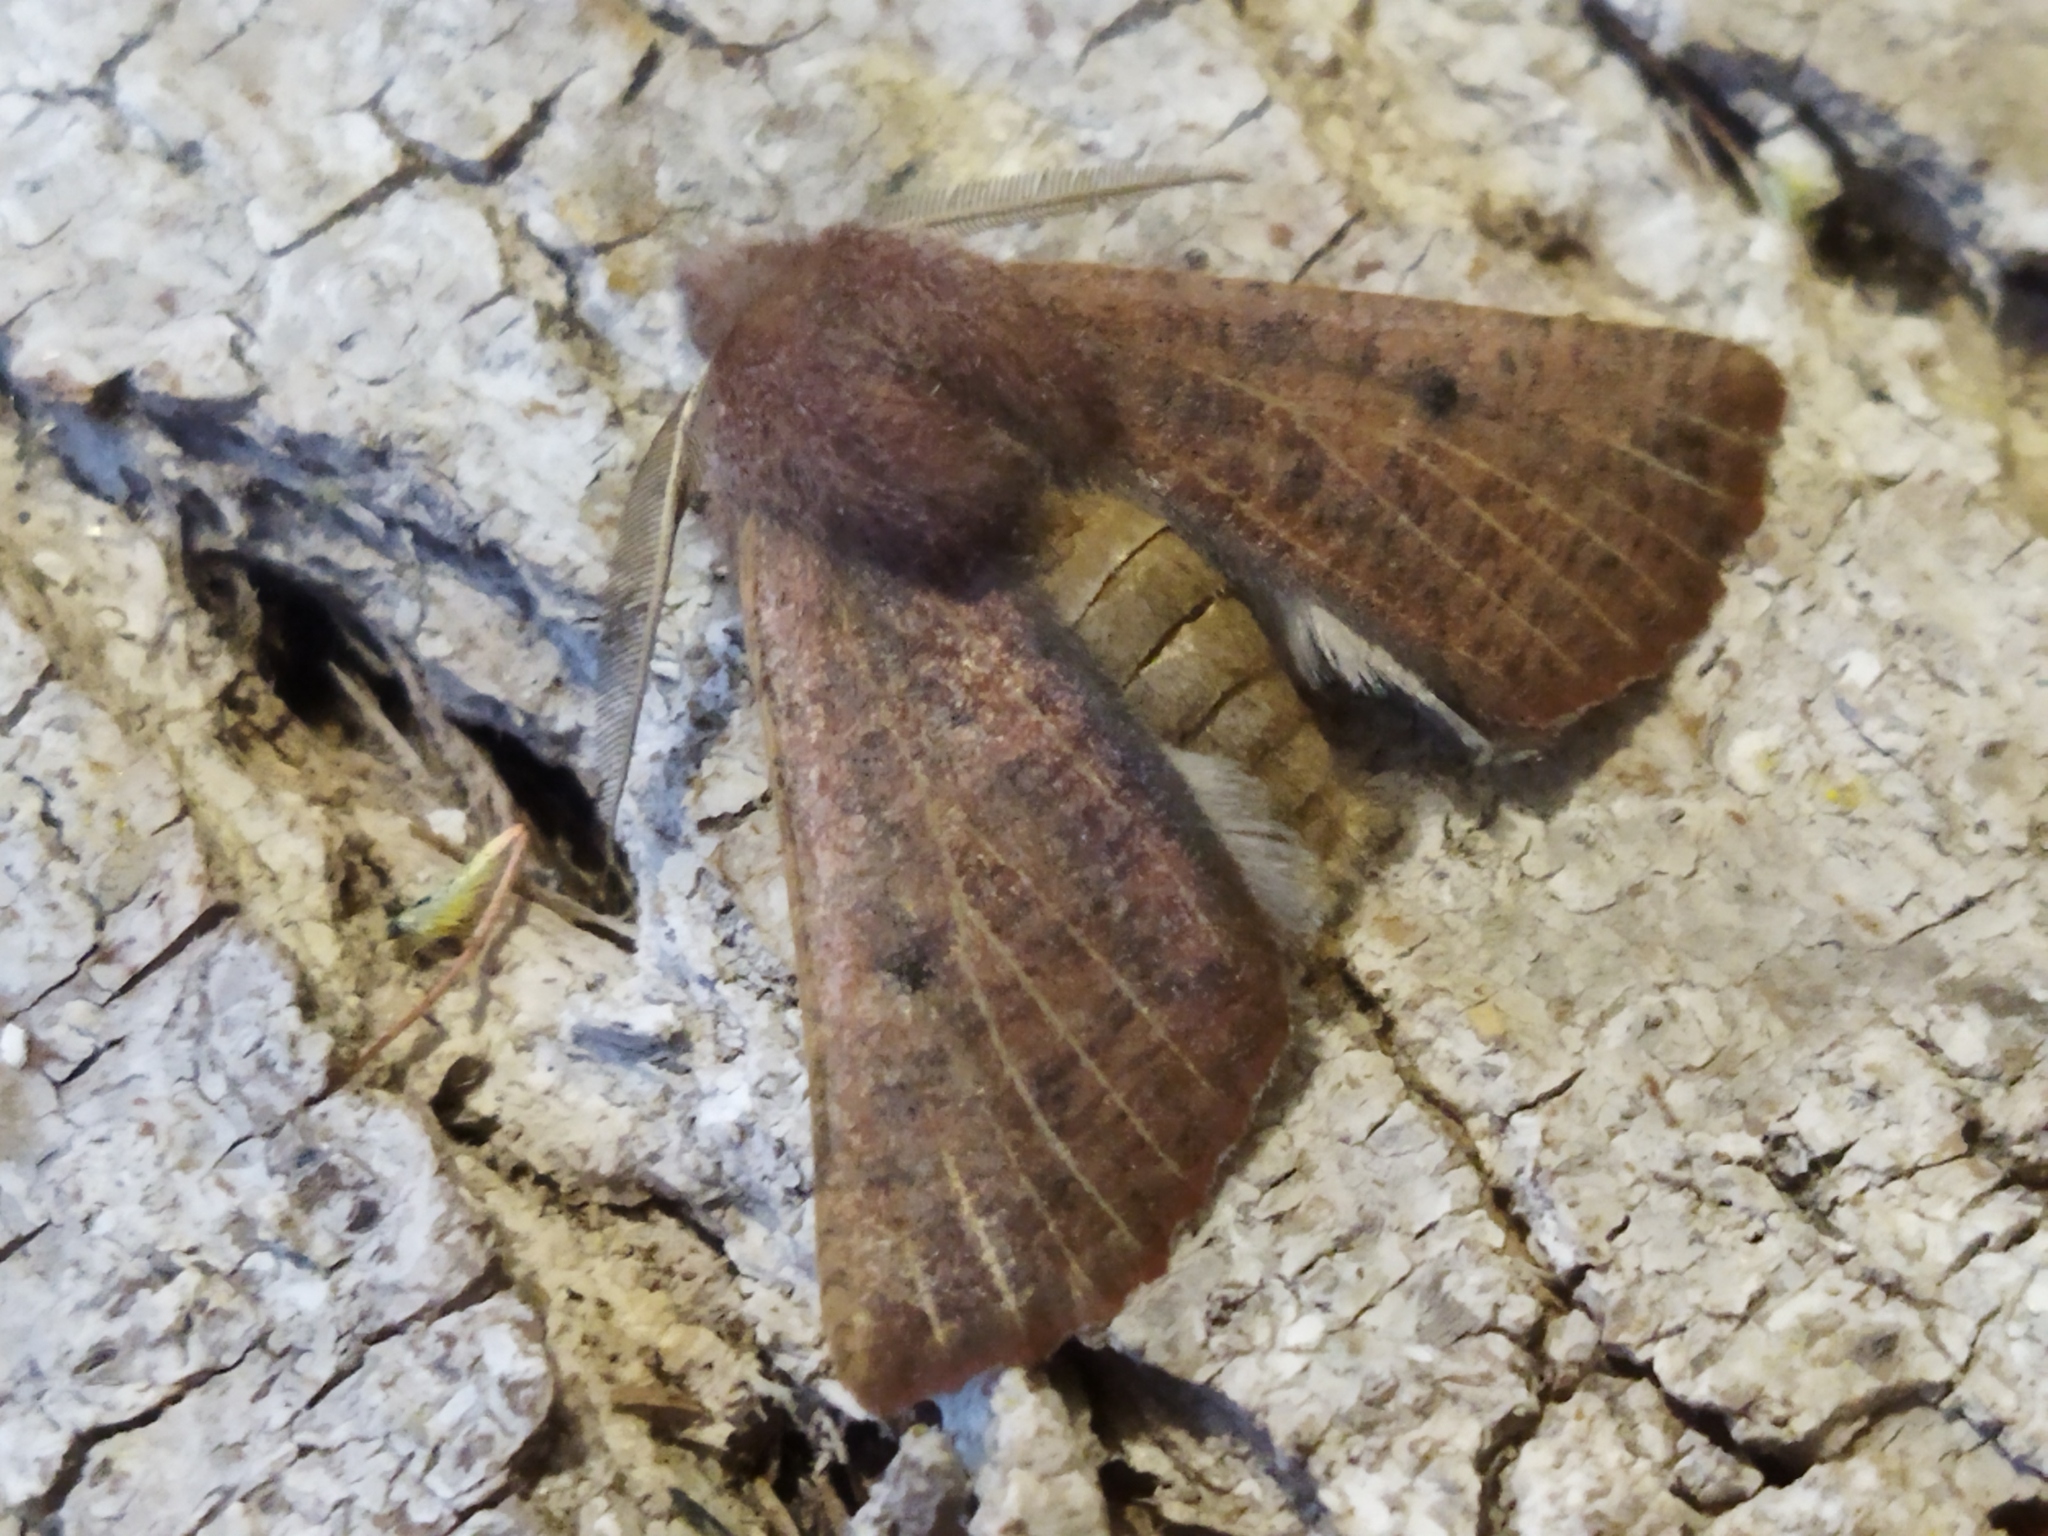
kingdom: Animalia
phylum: Arthropoda
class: Insecta
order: Lepidoptera
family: Geometridae
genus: Dasycorsa
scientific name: Dasycorsa modesta
